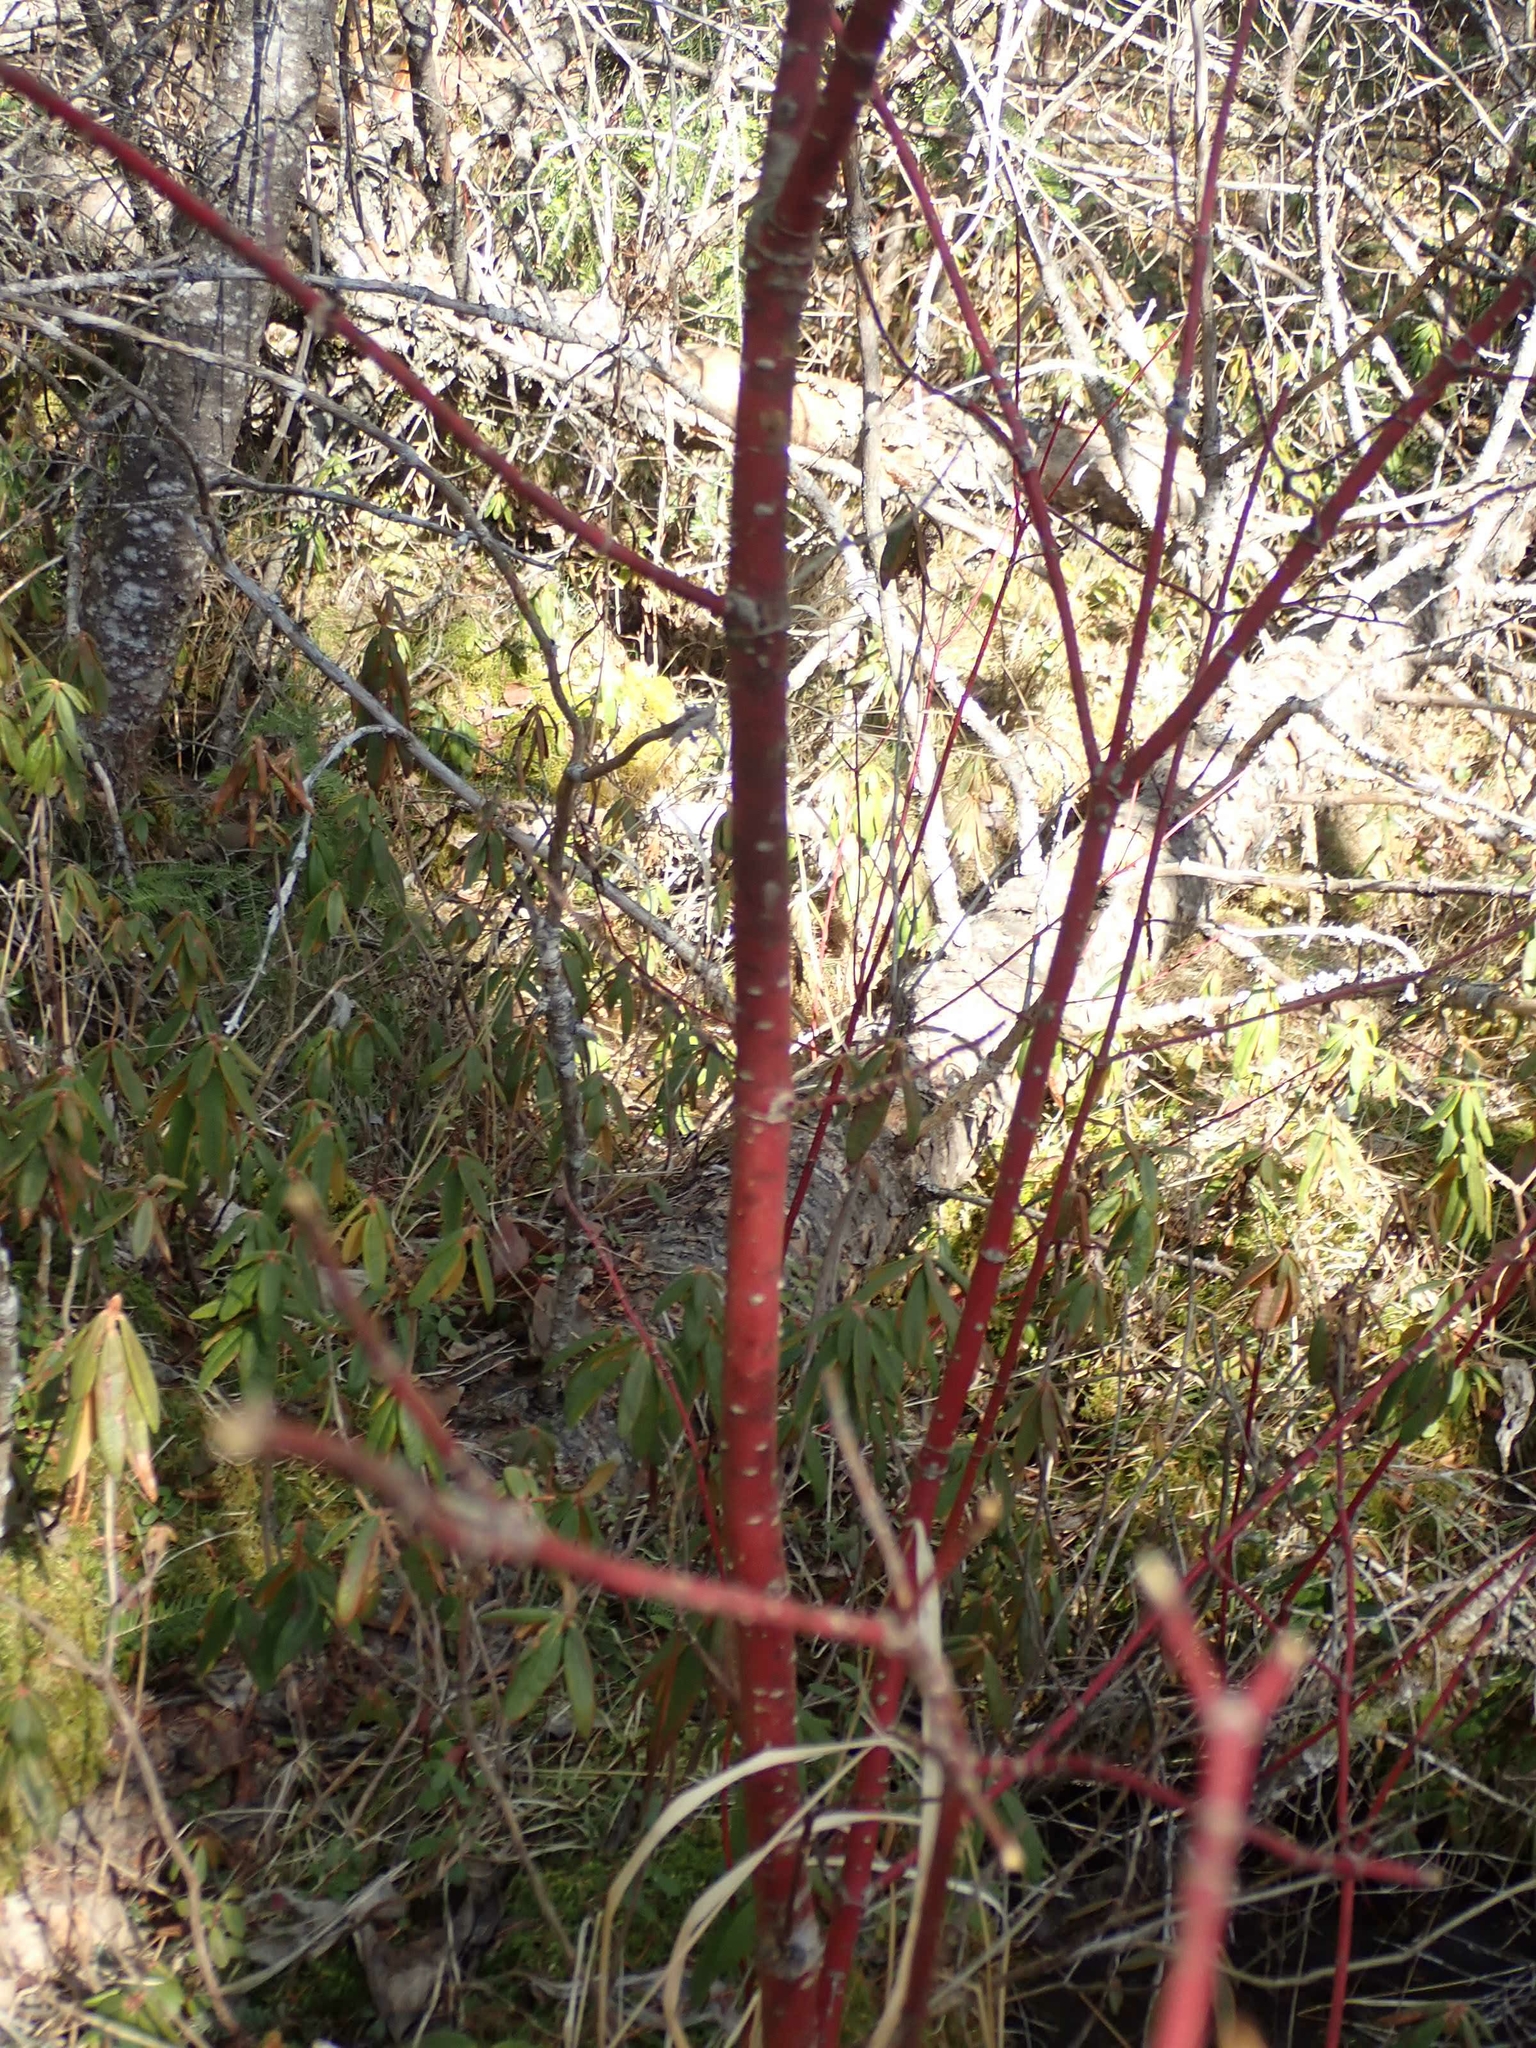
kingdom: Plantae
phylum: Tracheophyta
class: Magnoliopsida
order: Cornales
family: Cornaceae
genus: Cornus
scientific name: Cornus sericea
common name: Red-osier dogwood
